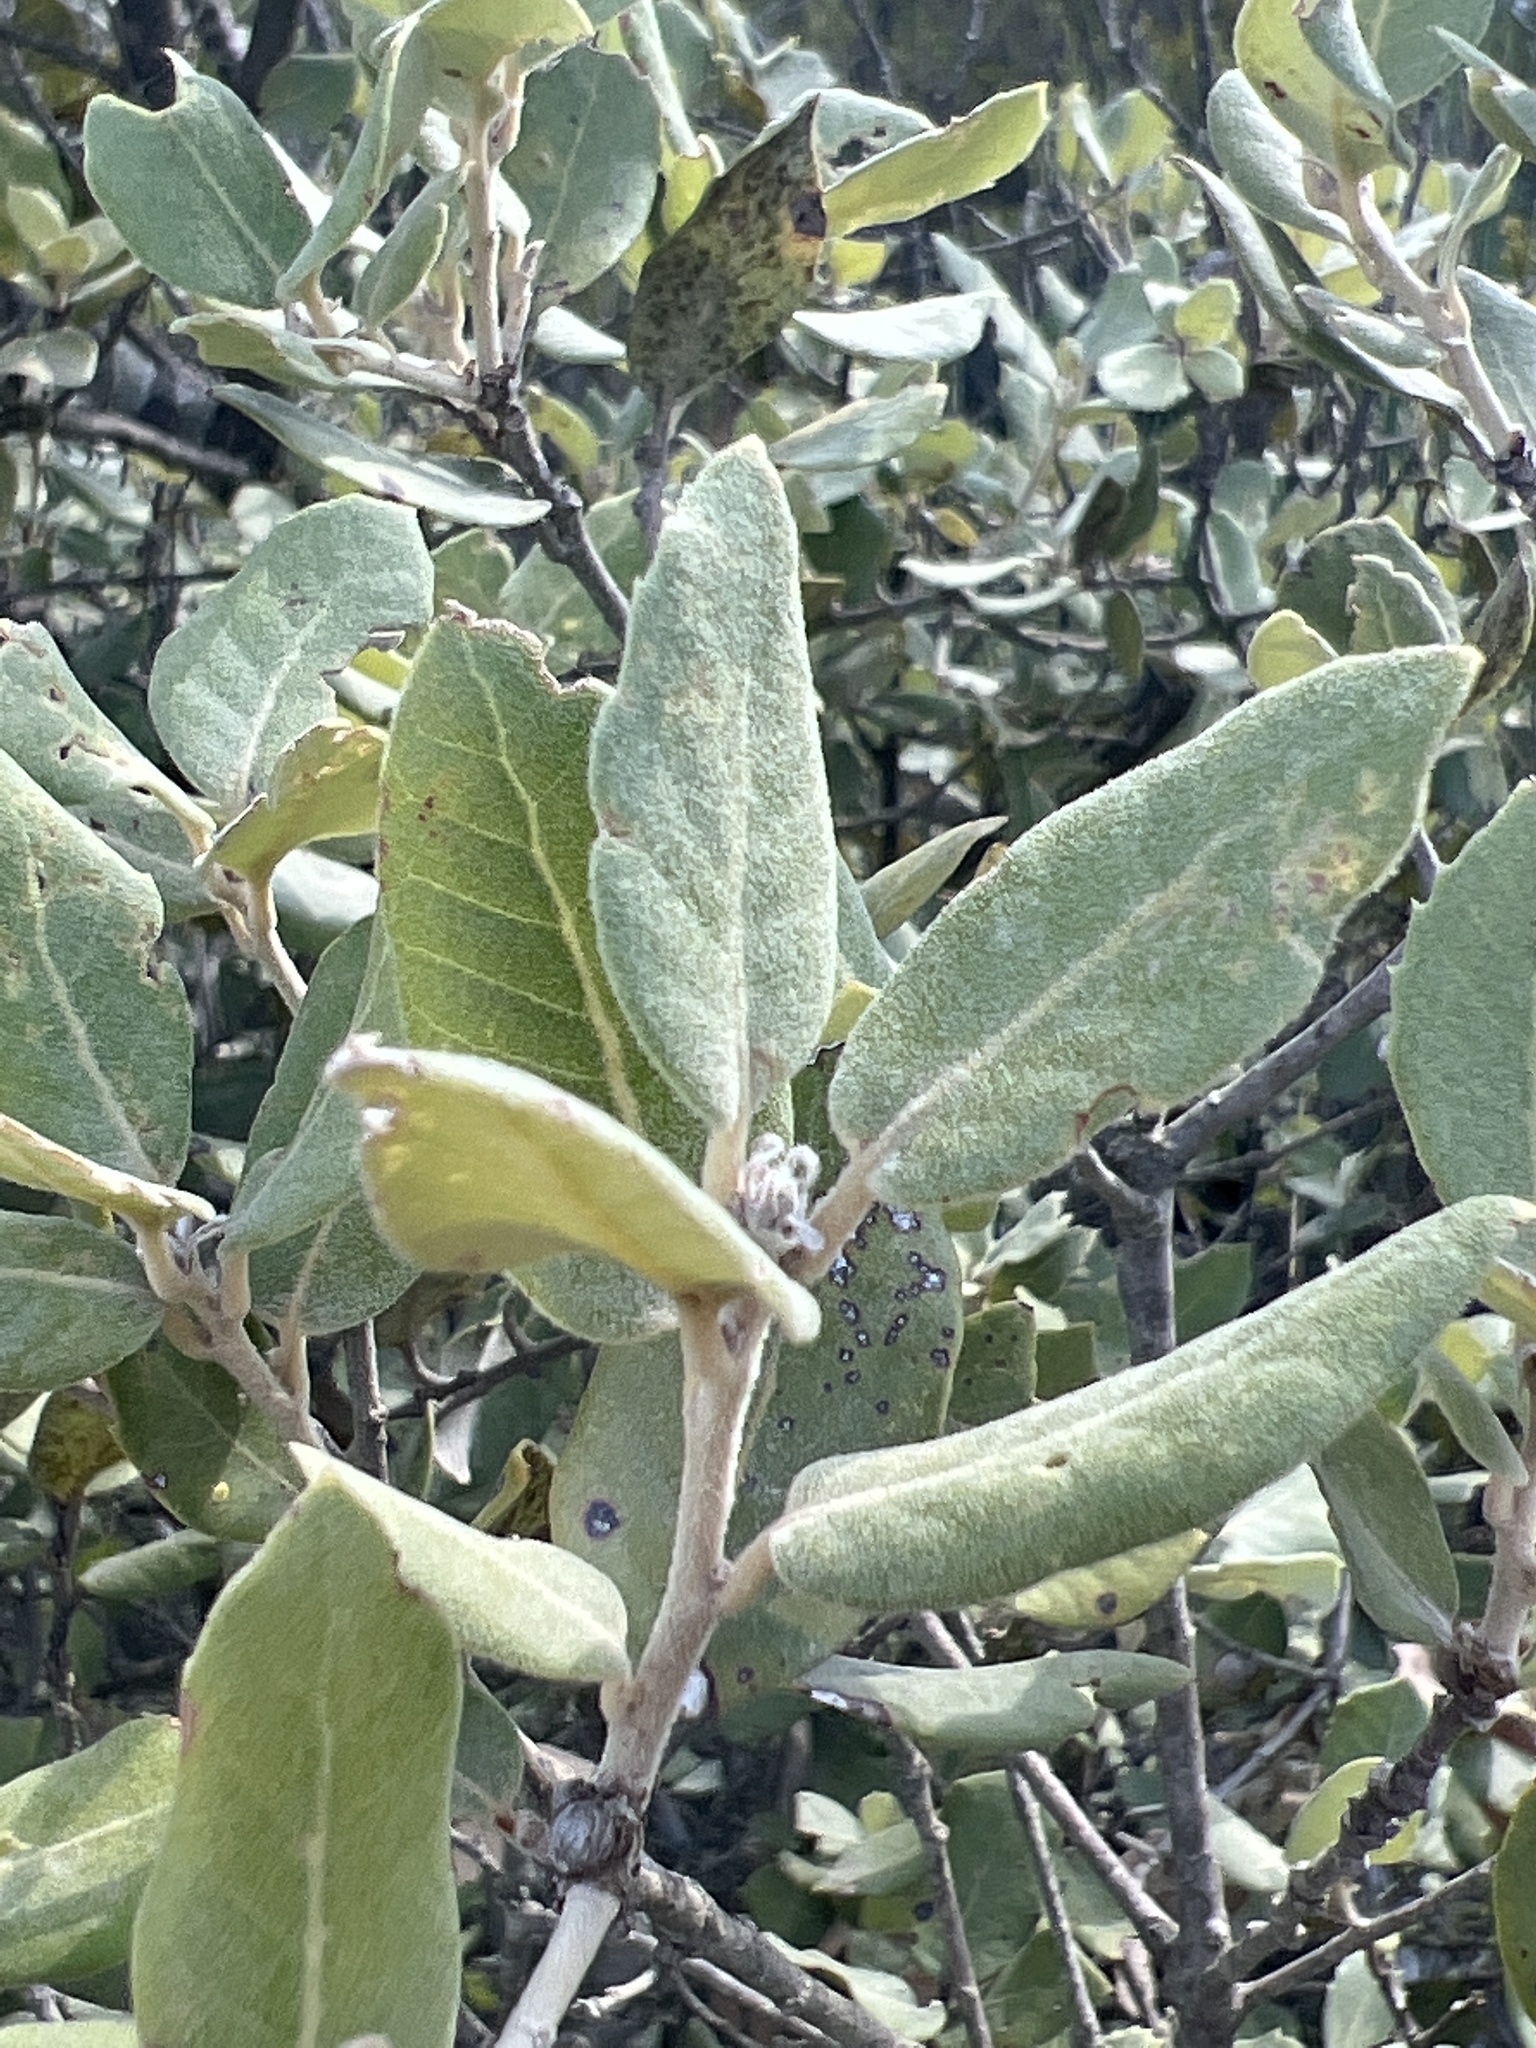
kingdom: Plantae
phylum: Tracheophyta
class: Magnoliopsida
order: Fagales
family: Fagaceae
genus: Quercus
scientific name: Quercus ilex
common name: Evergreen oak
